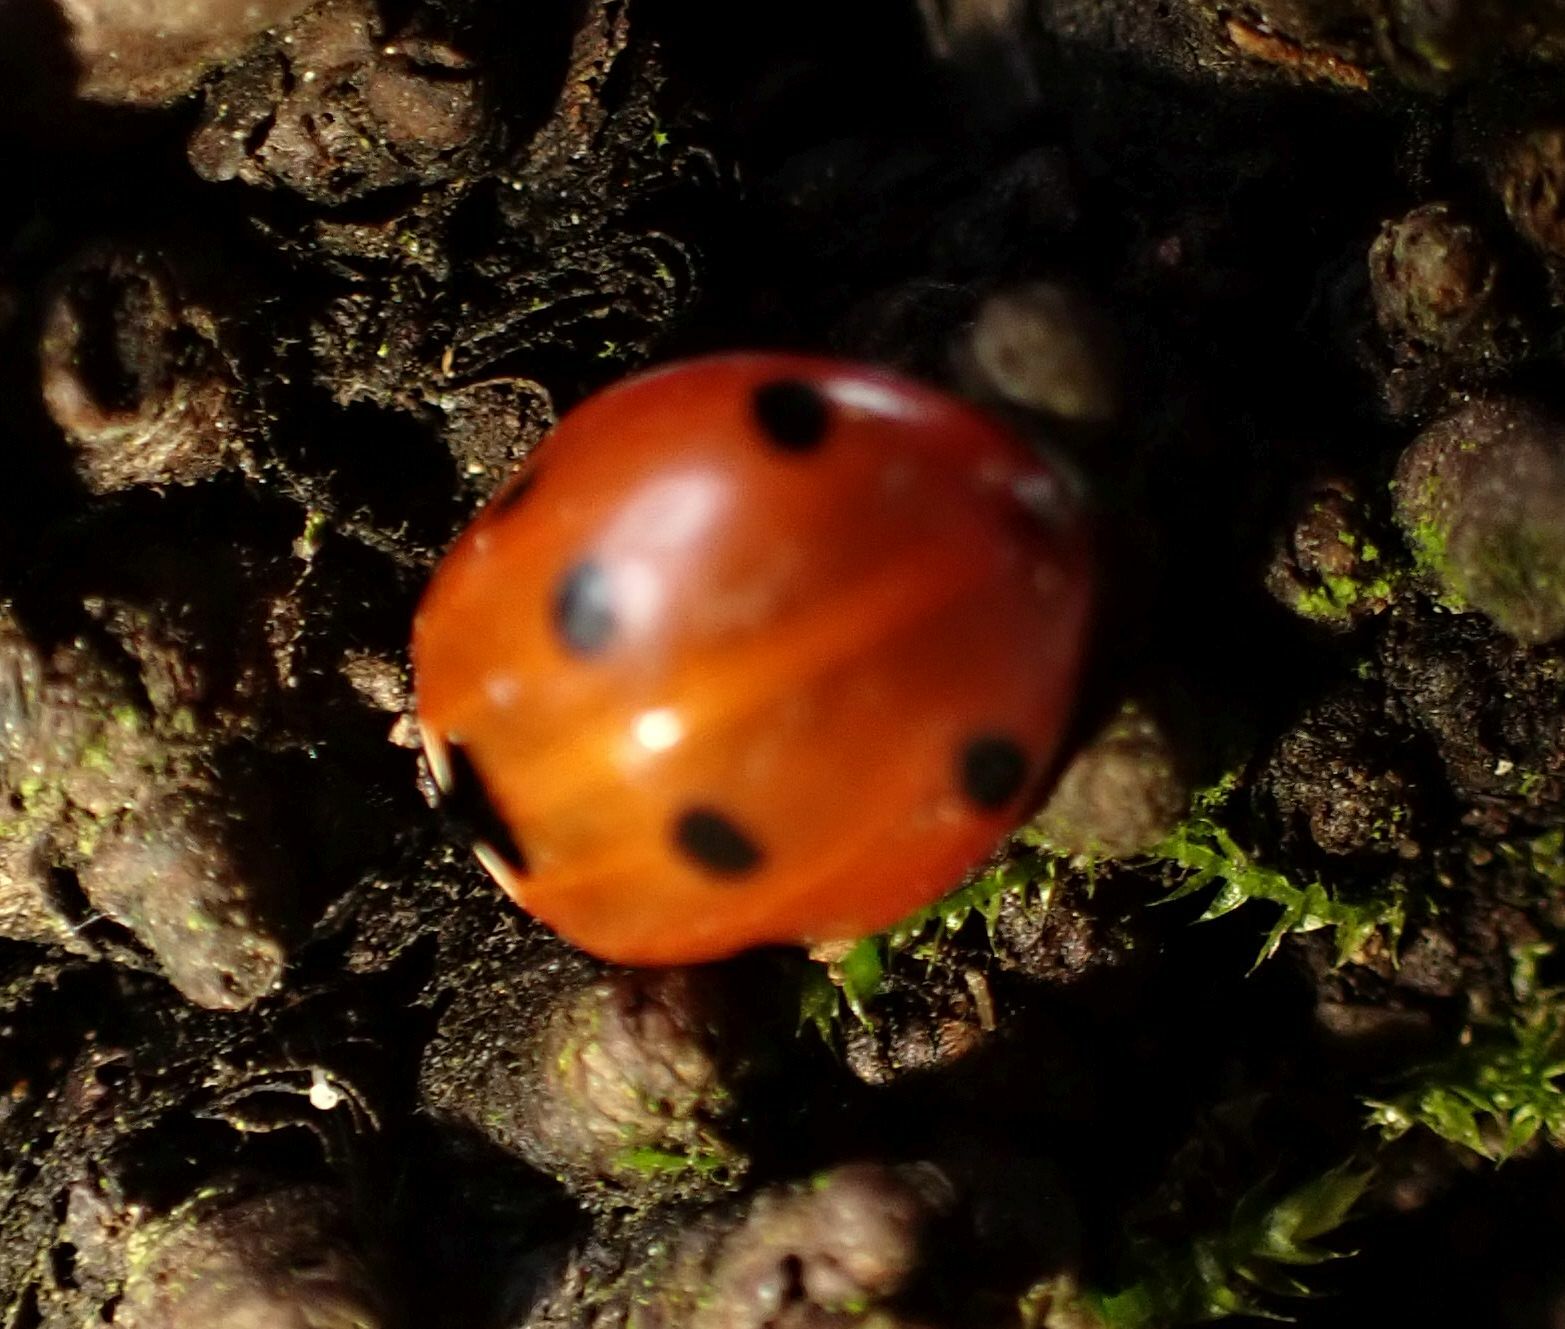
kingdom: Animalia
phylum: Arthropoda
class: Insecta
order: Coleoptera
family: Coccinellidae
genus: Coccinella
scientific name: Coccinella septempunctata
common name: Sevenspotted lady beetle
